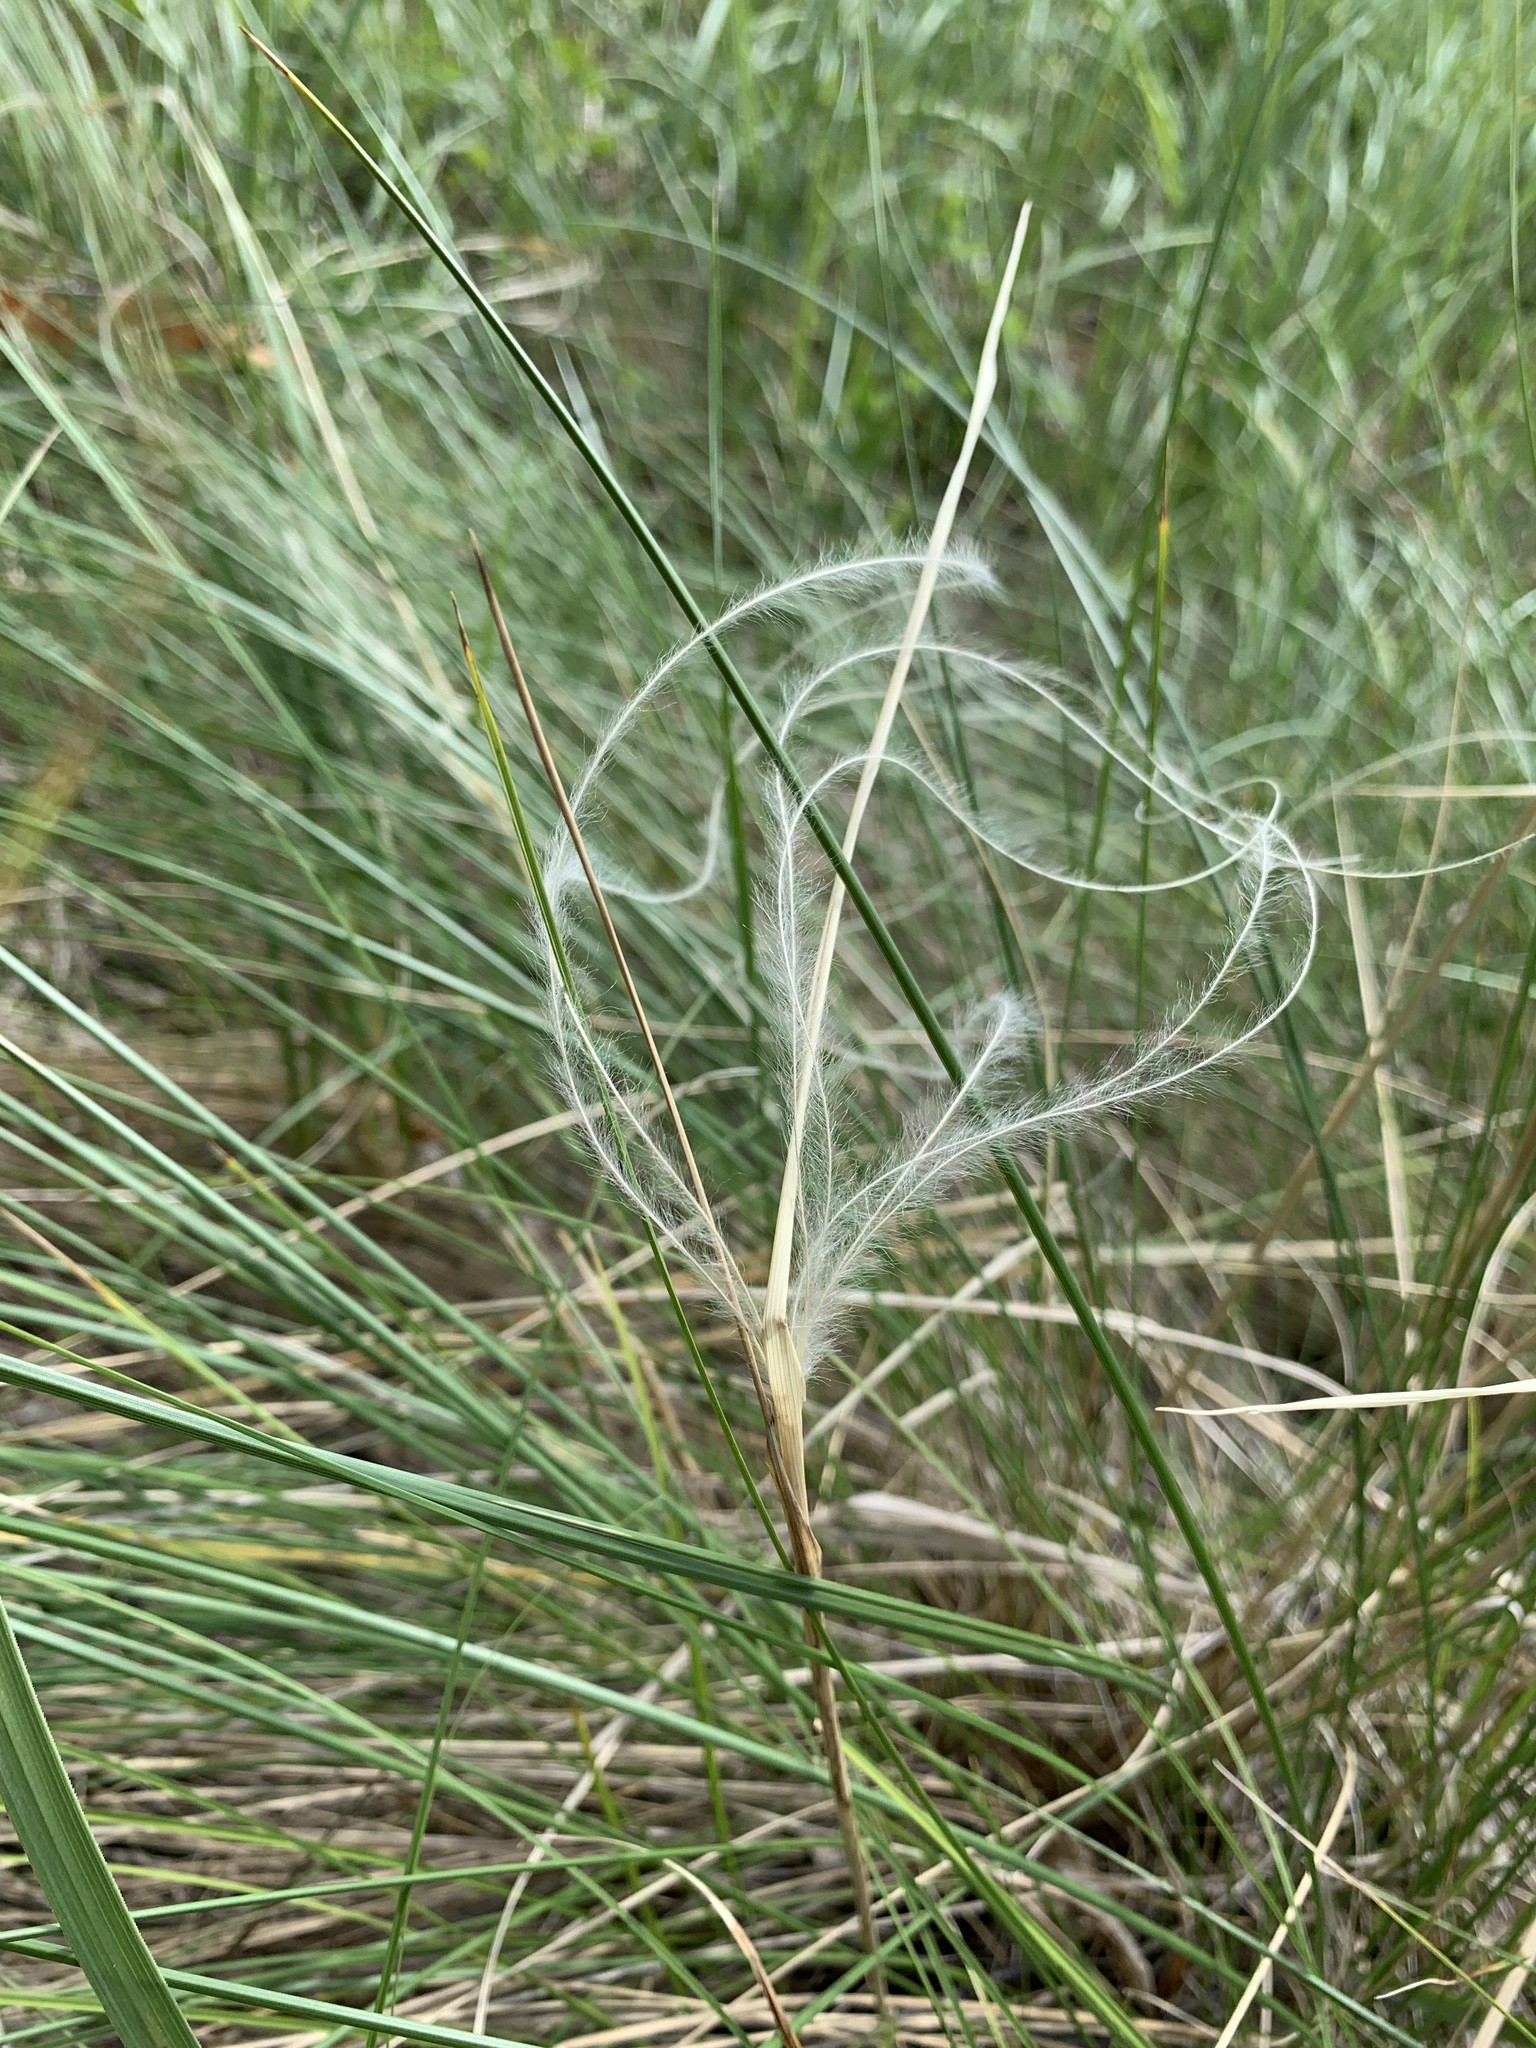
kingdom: Plantae
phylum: Tracheophyta
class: Liliopsida
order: Poales
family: Poaceae
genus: Stipa
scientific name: Stipa pennata
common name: European feather grass
